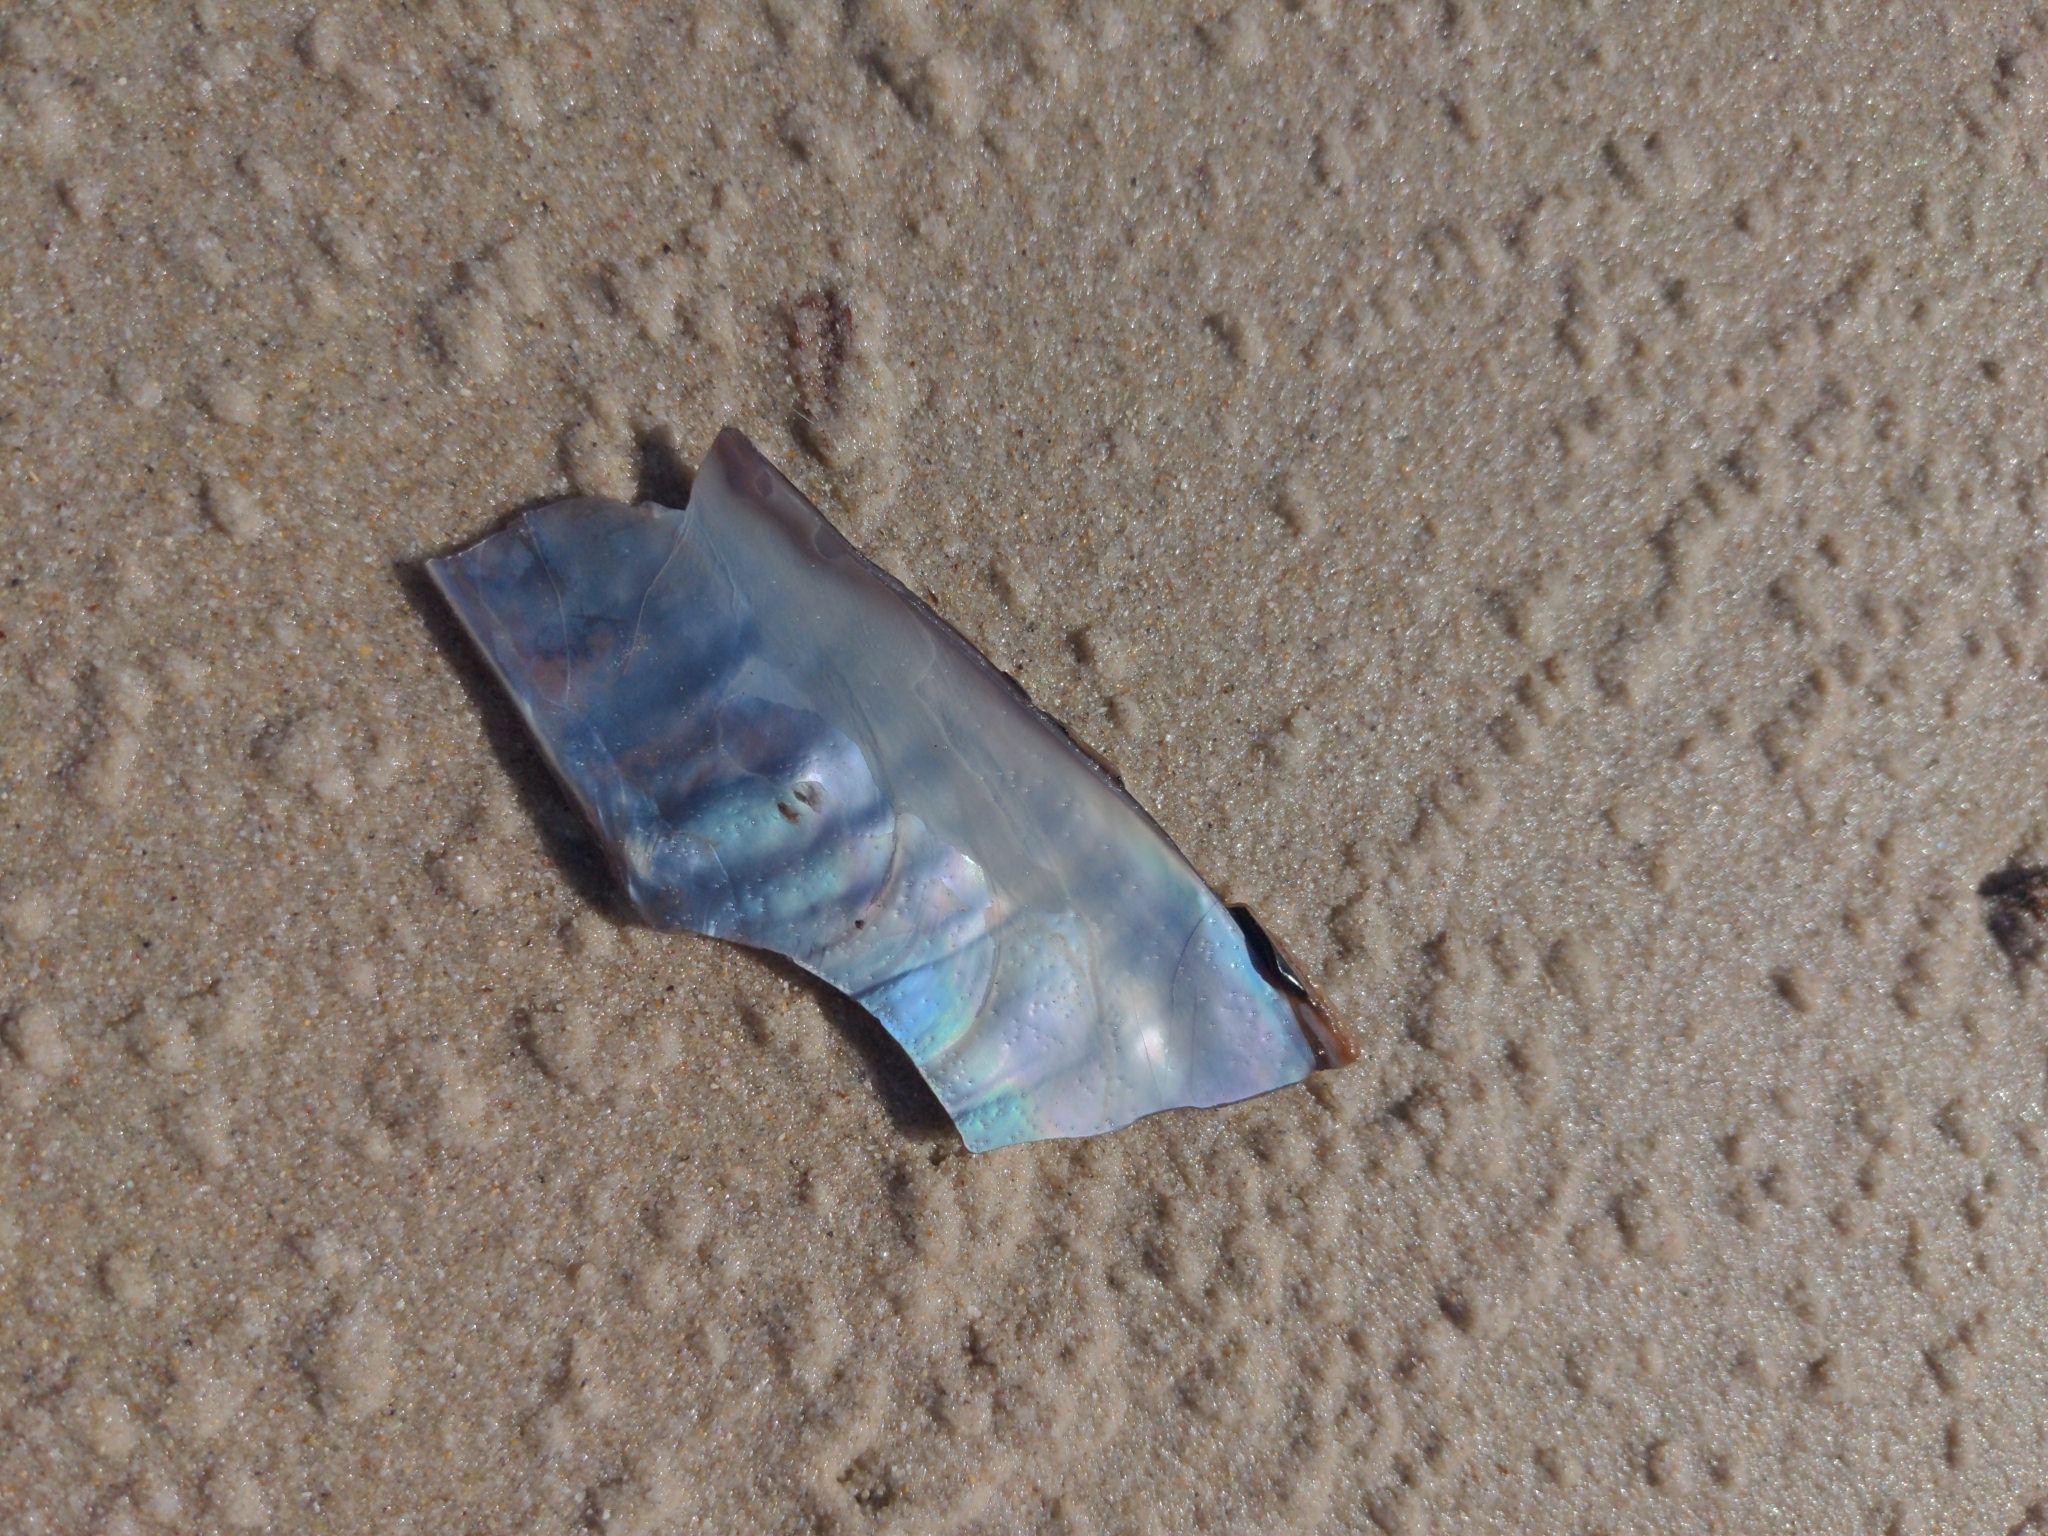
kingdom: Animalia
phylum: Mollusca
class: Bivalvia
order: Ostreida
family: Pinnidae
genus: Pinna
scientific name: Pinna bicolor
